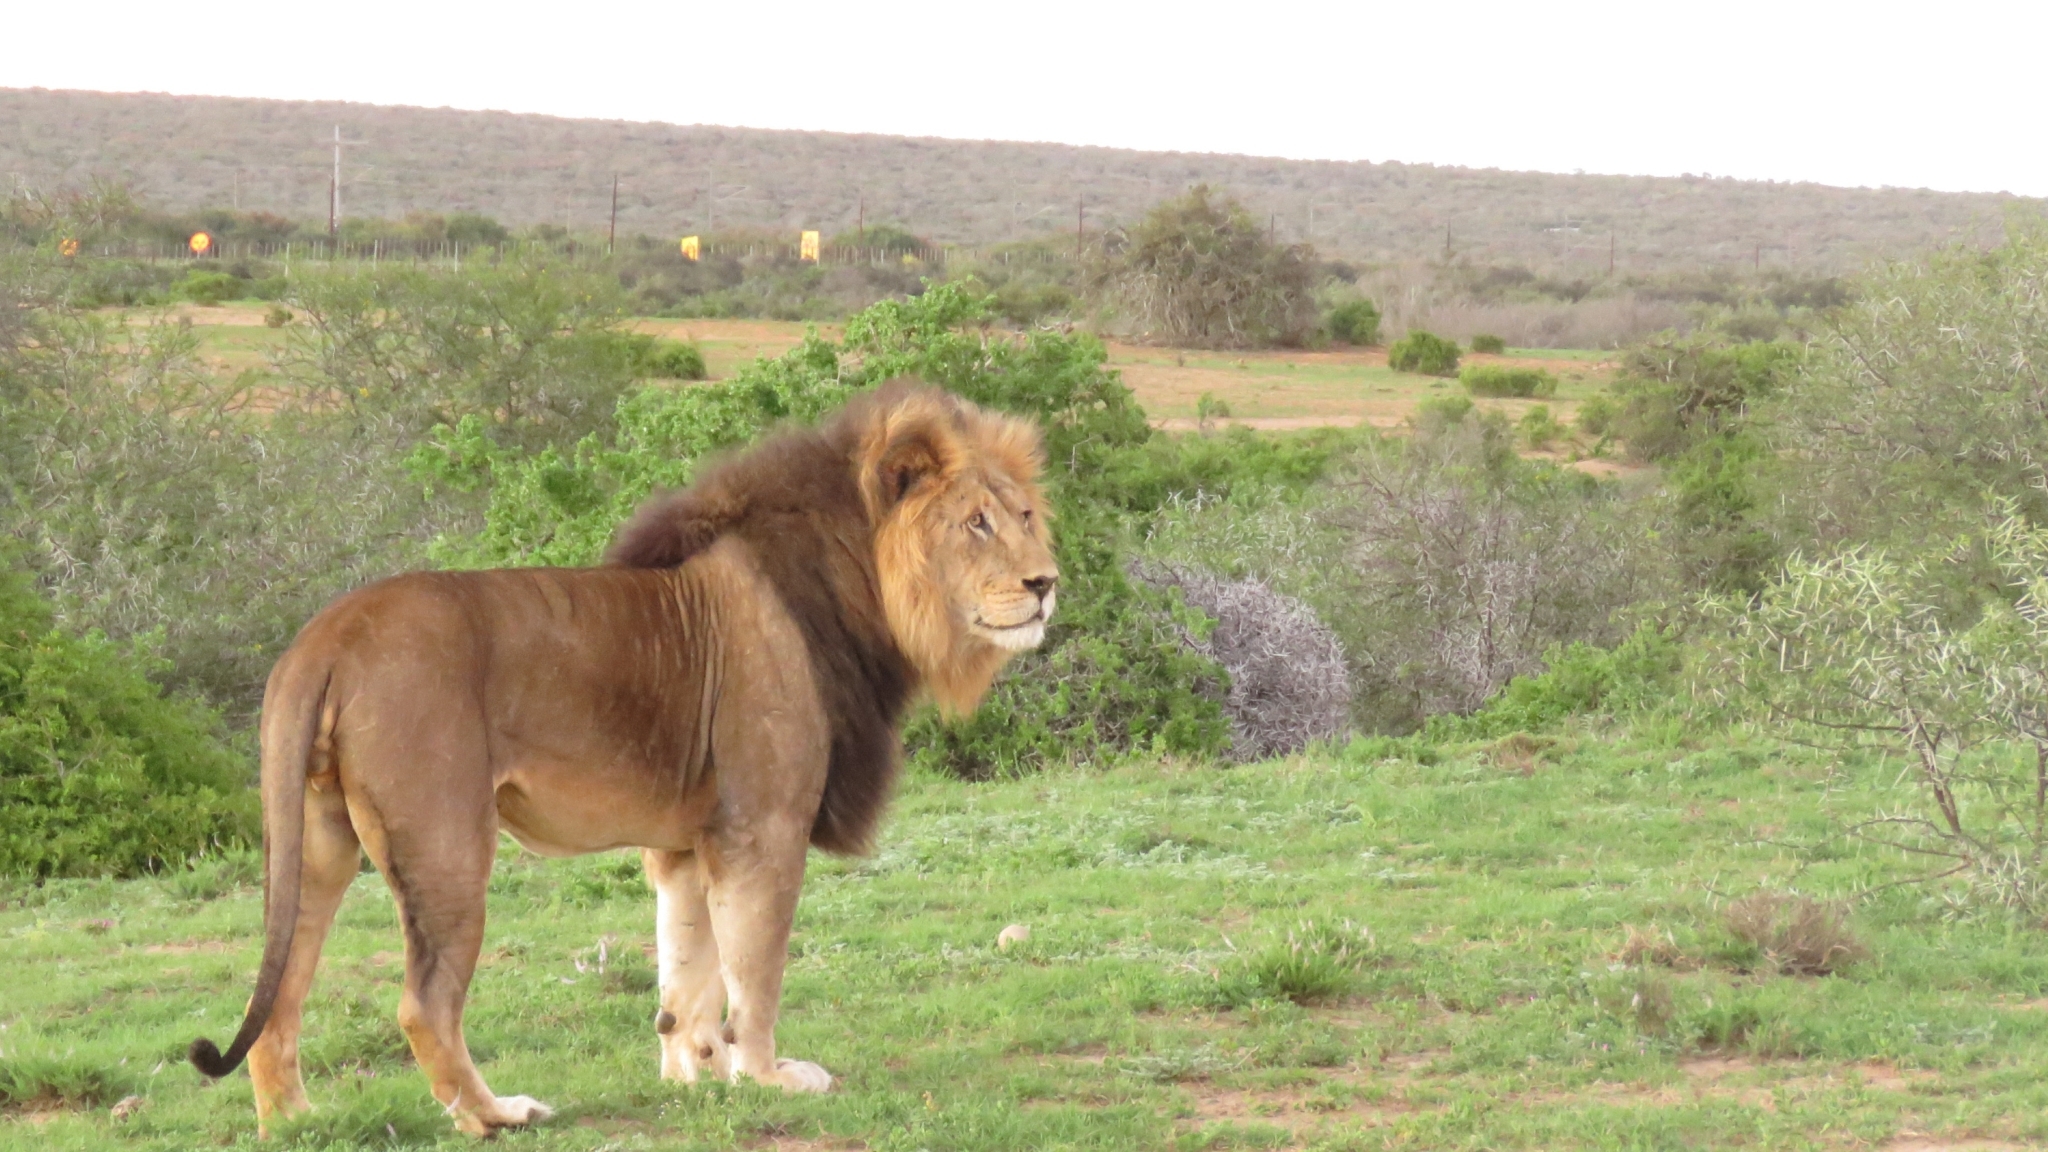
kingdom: Animalia
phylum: Chordata
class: Mammalia
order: Carnivora
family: Felidae
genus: Panthera
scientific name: Panthera leo
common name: Lion
